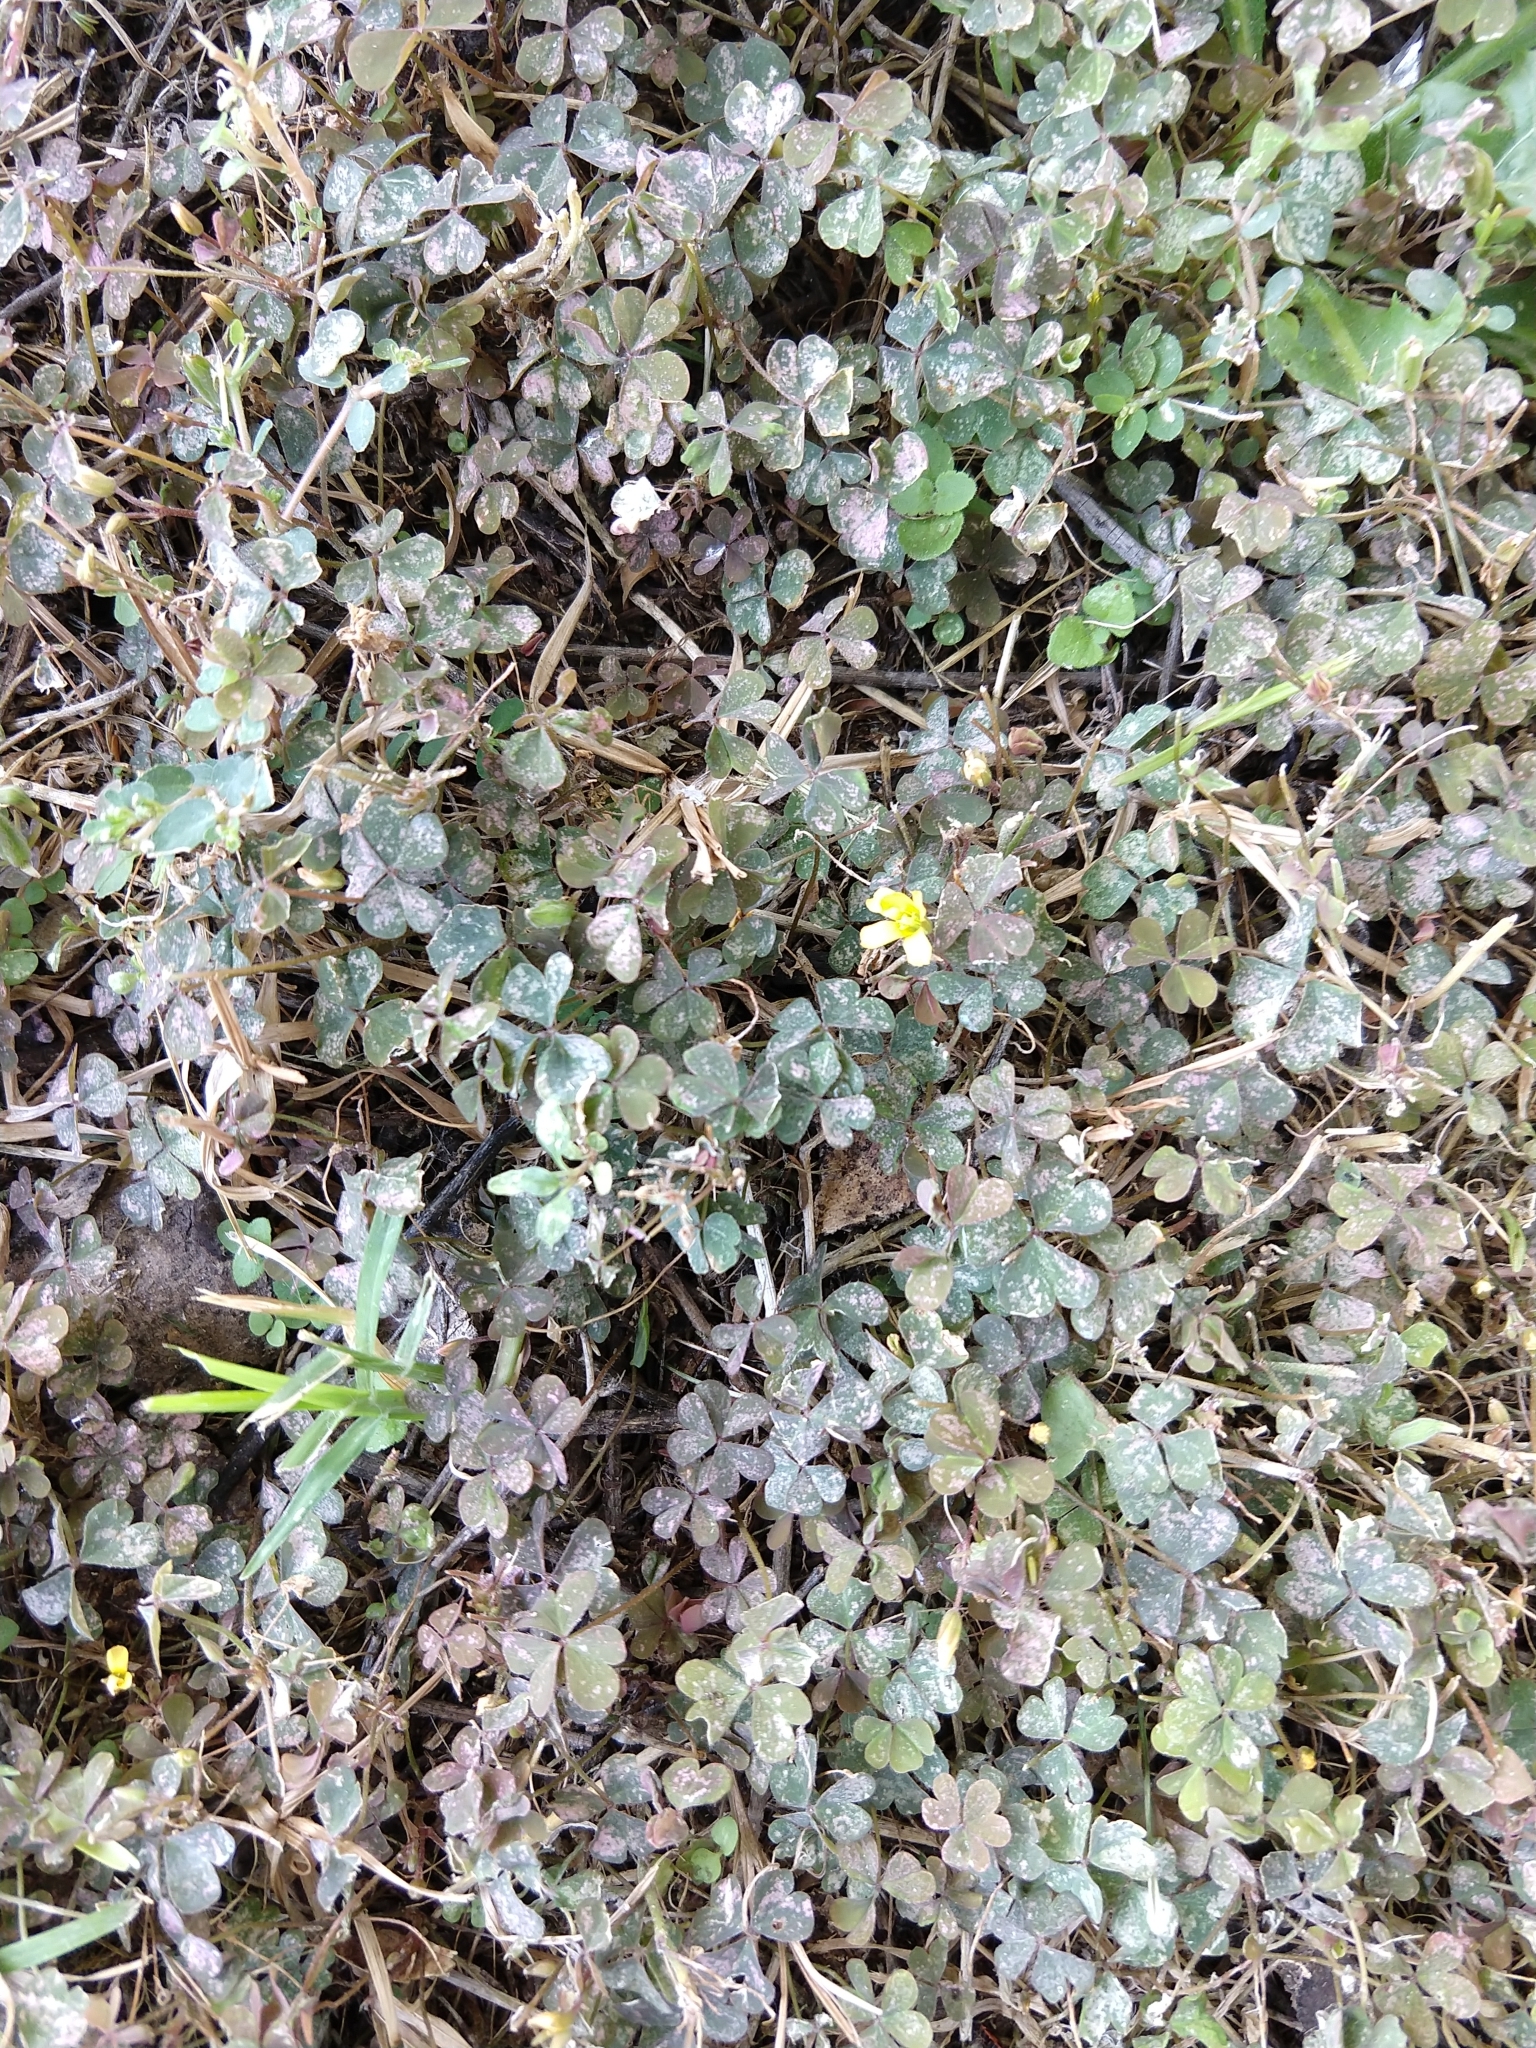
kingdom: Plantae
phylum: Tracheophyta
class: Magnoliopsida
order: Oxalidales
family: Oxalidaceae
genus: Oxalis
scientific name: Oxalis corniculata
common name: Procumbent yellow-sorrel
